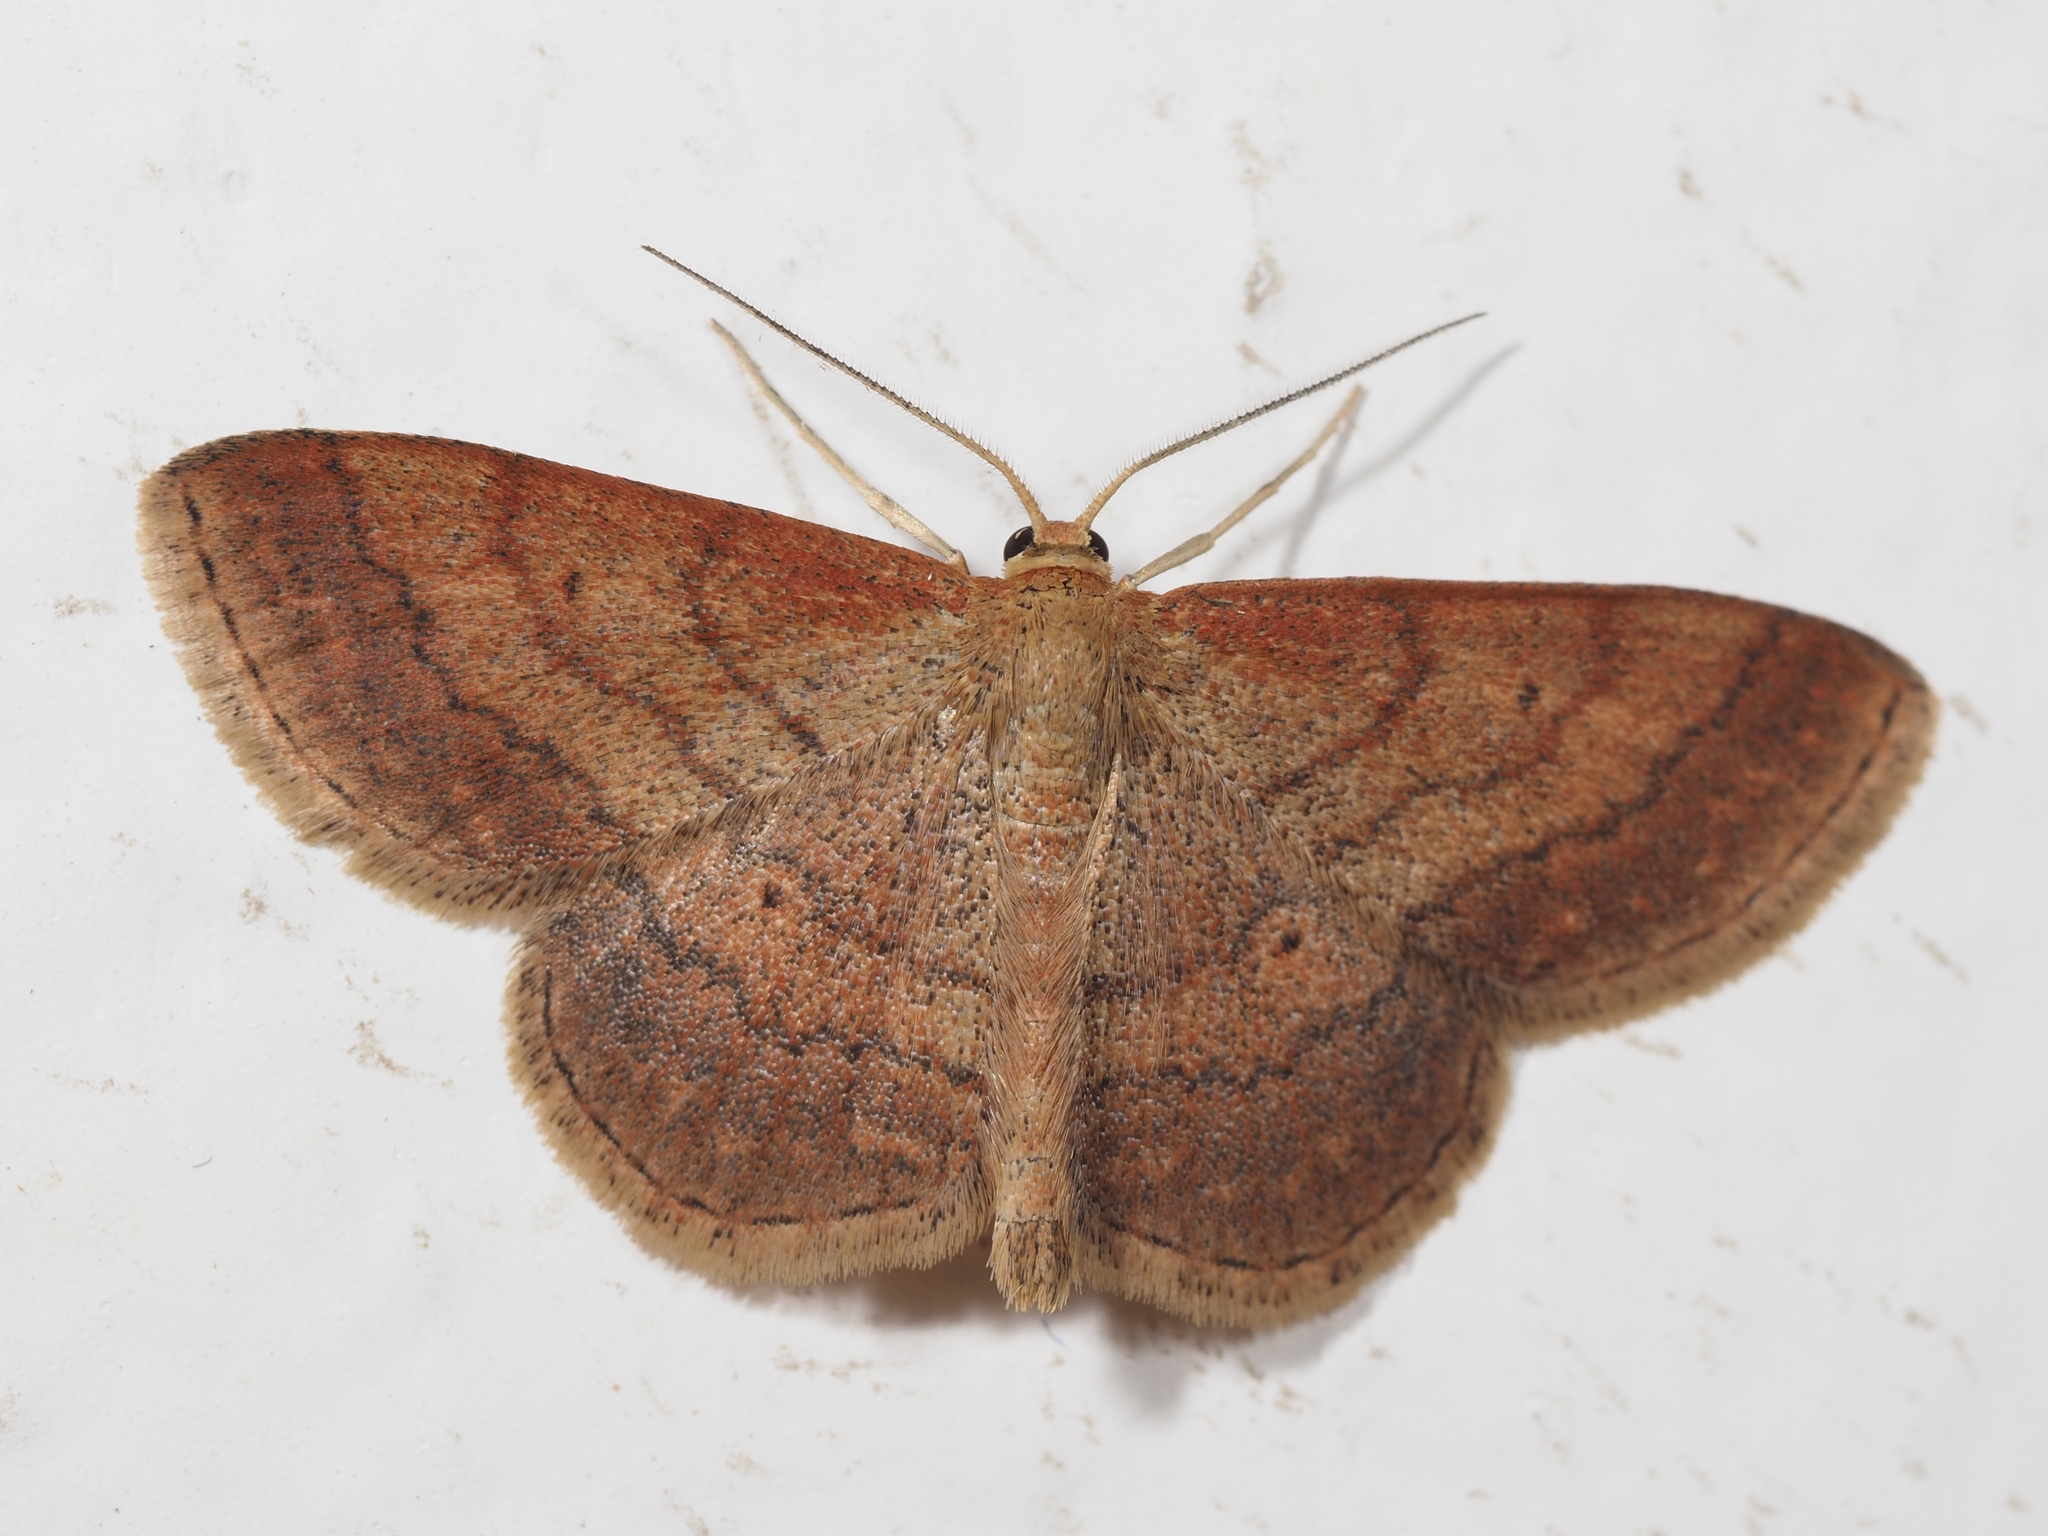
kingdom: Animalia
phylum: Arthropoda
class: Insecta
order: Lepidoptera
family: Geometridae
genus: Scopula
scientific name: Scopula rubiginata
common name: Tawny wave
